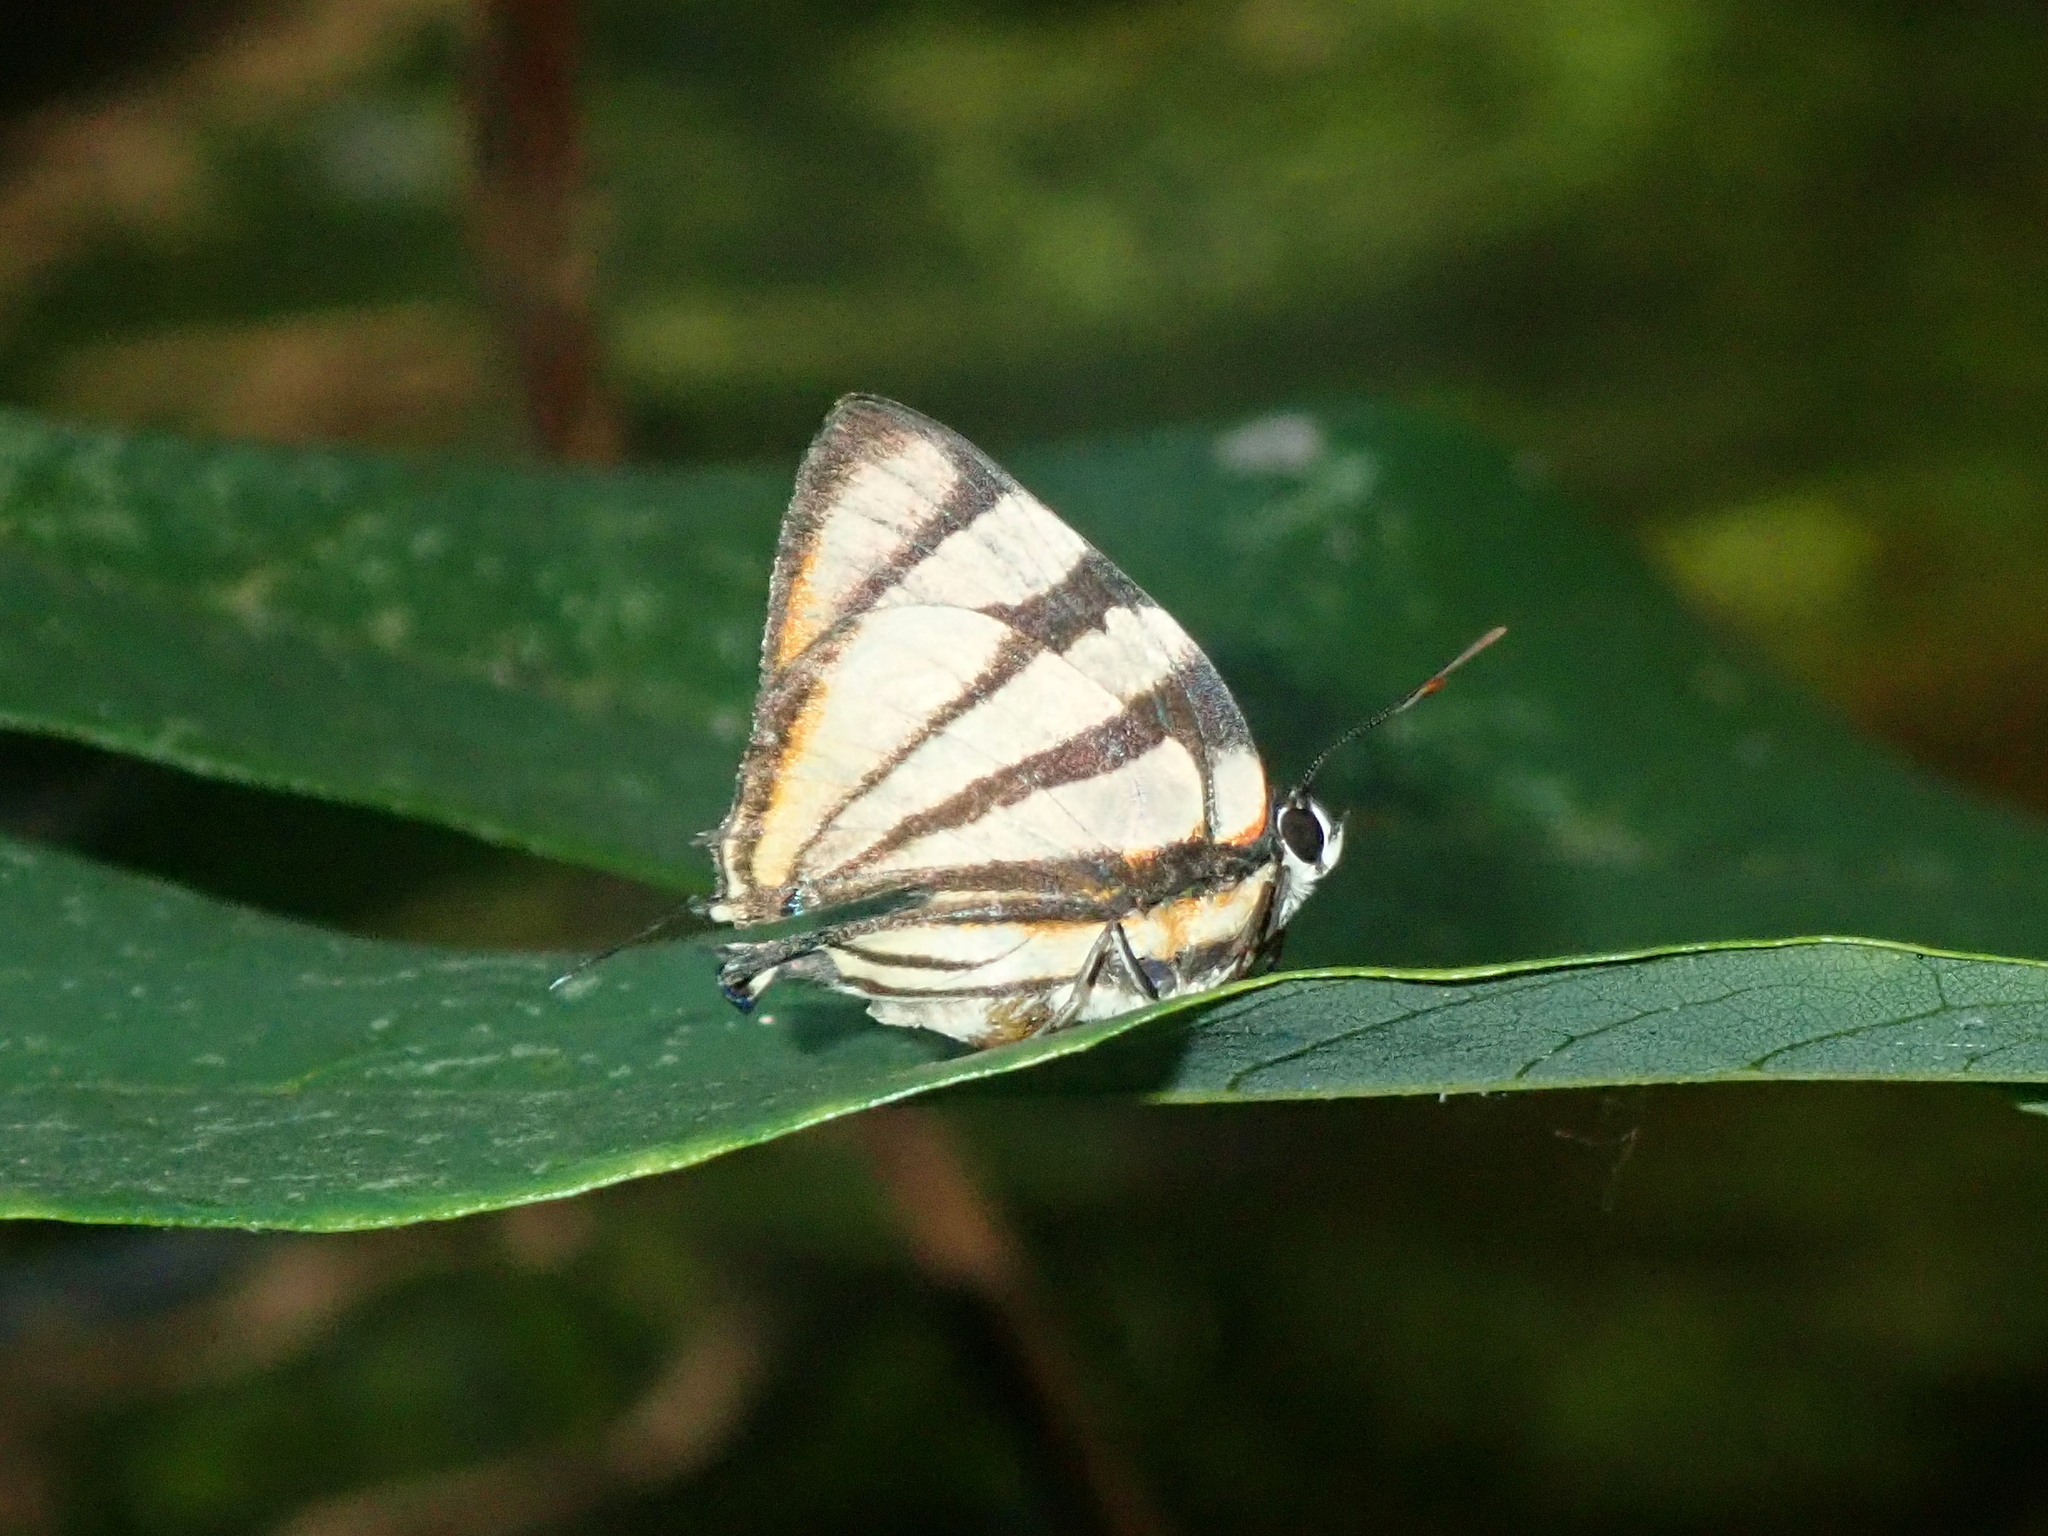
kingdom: Animalia
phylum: Arthropoda
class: Insecta
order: Lepidoptera
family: Lycaenidae
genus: Cycnus
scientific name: Cycnus phaleros
